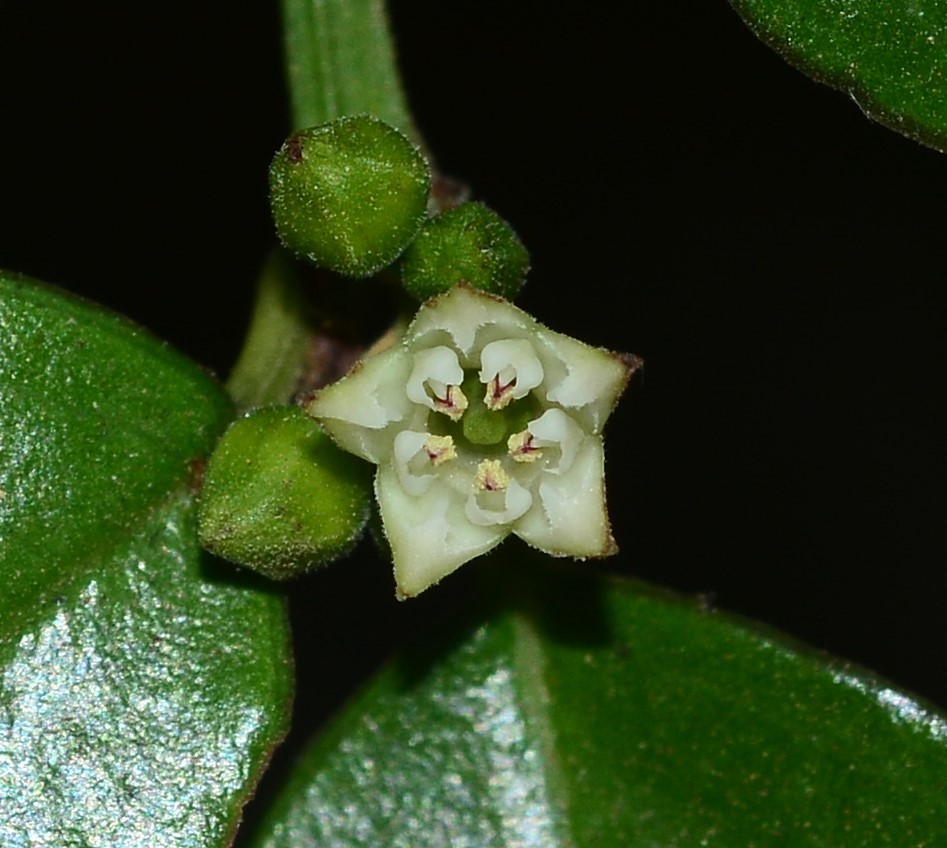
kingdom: Plantae
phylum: Tracheophyta
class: Magnoliopsida
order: Rosales
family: Rhamnaceae
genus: Scutia
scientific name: Scutia myrtina
